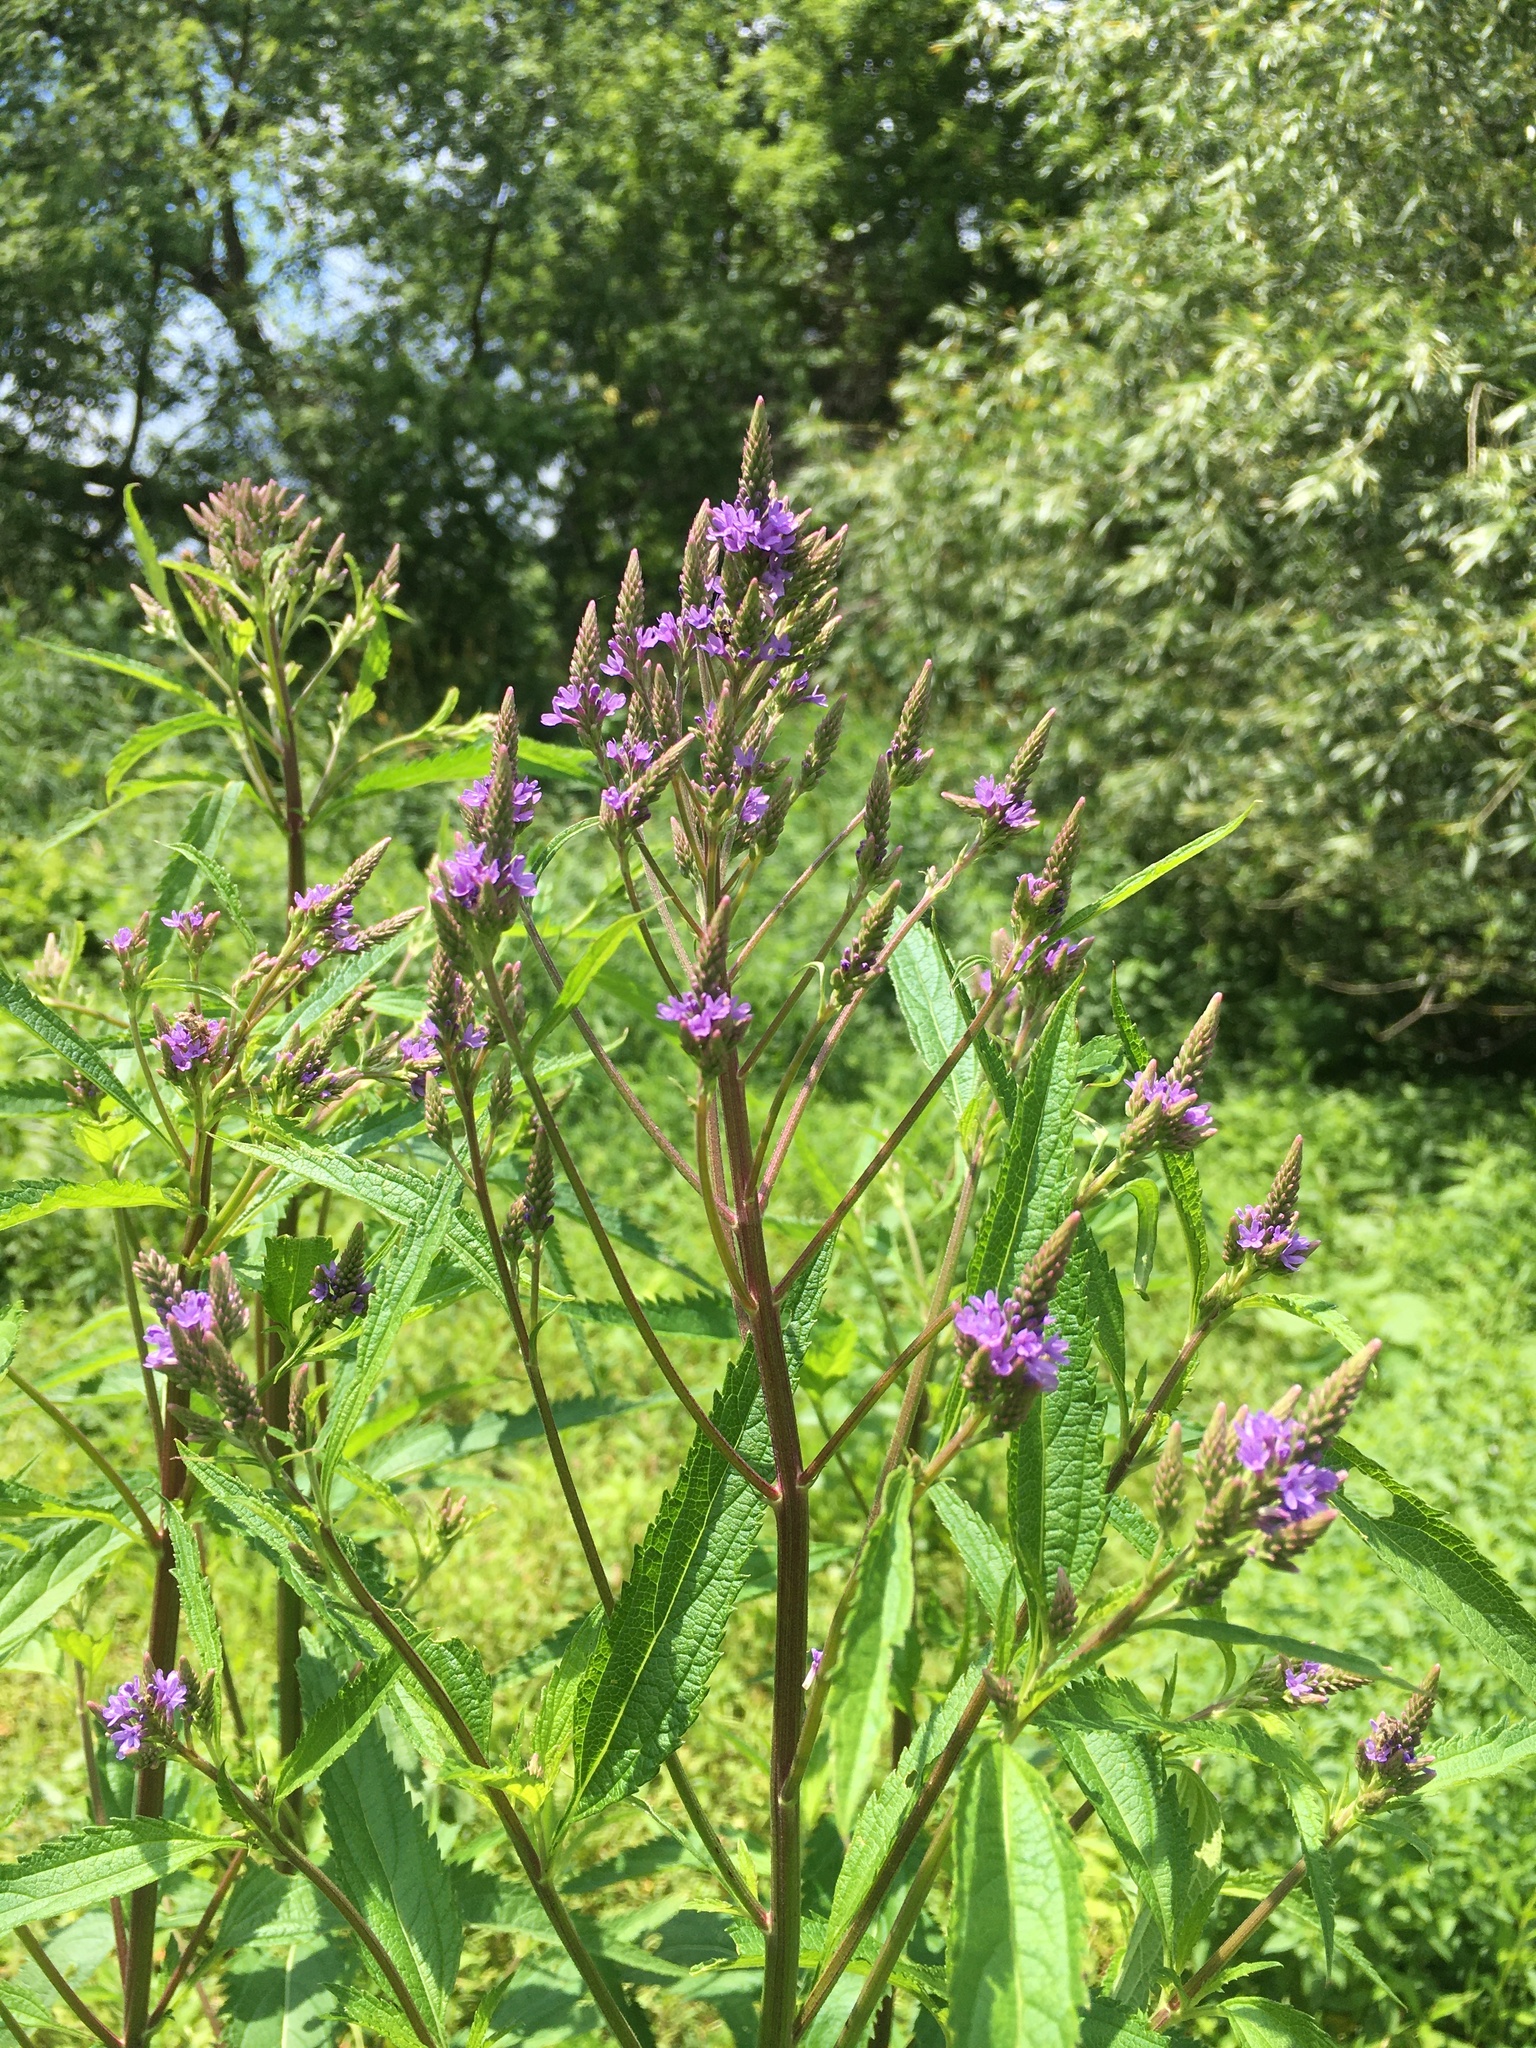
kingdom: Plantae
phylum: Tracheophyta
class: Magnoliopsida
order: Lamiales
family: Verbenaceae
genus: Verbena
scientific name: Verbena hastata
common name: American blue vervain
